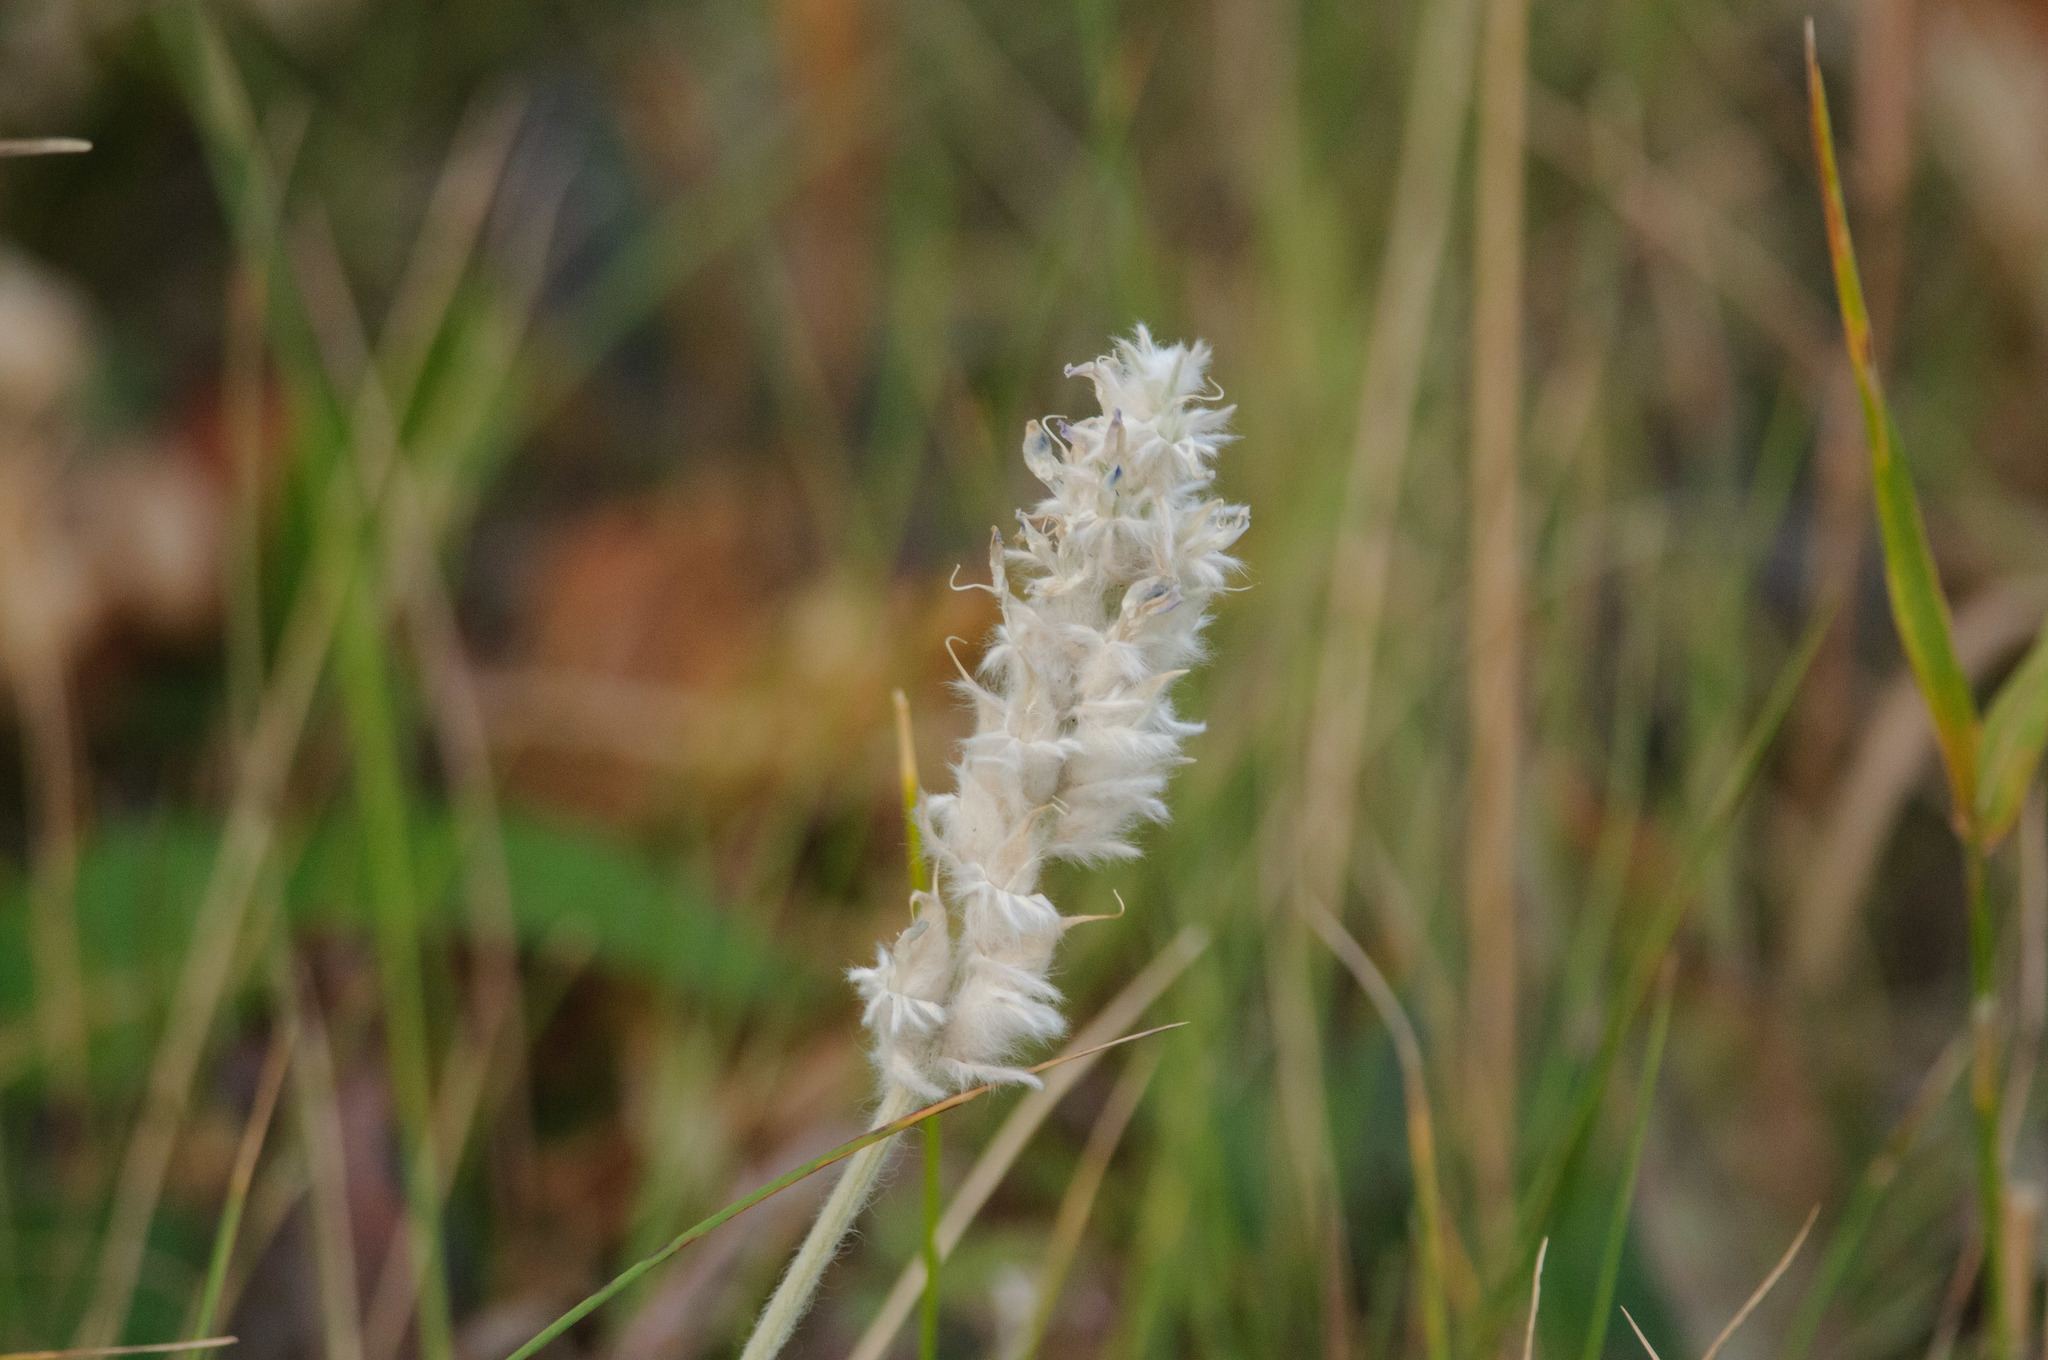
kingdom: Plantae
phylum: Tracheophyta
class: Magnoliopsida
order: Fabales
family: Fabaceae
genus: Oxytropis
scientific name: Oxytropis splendens
